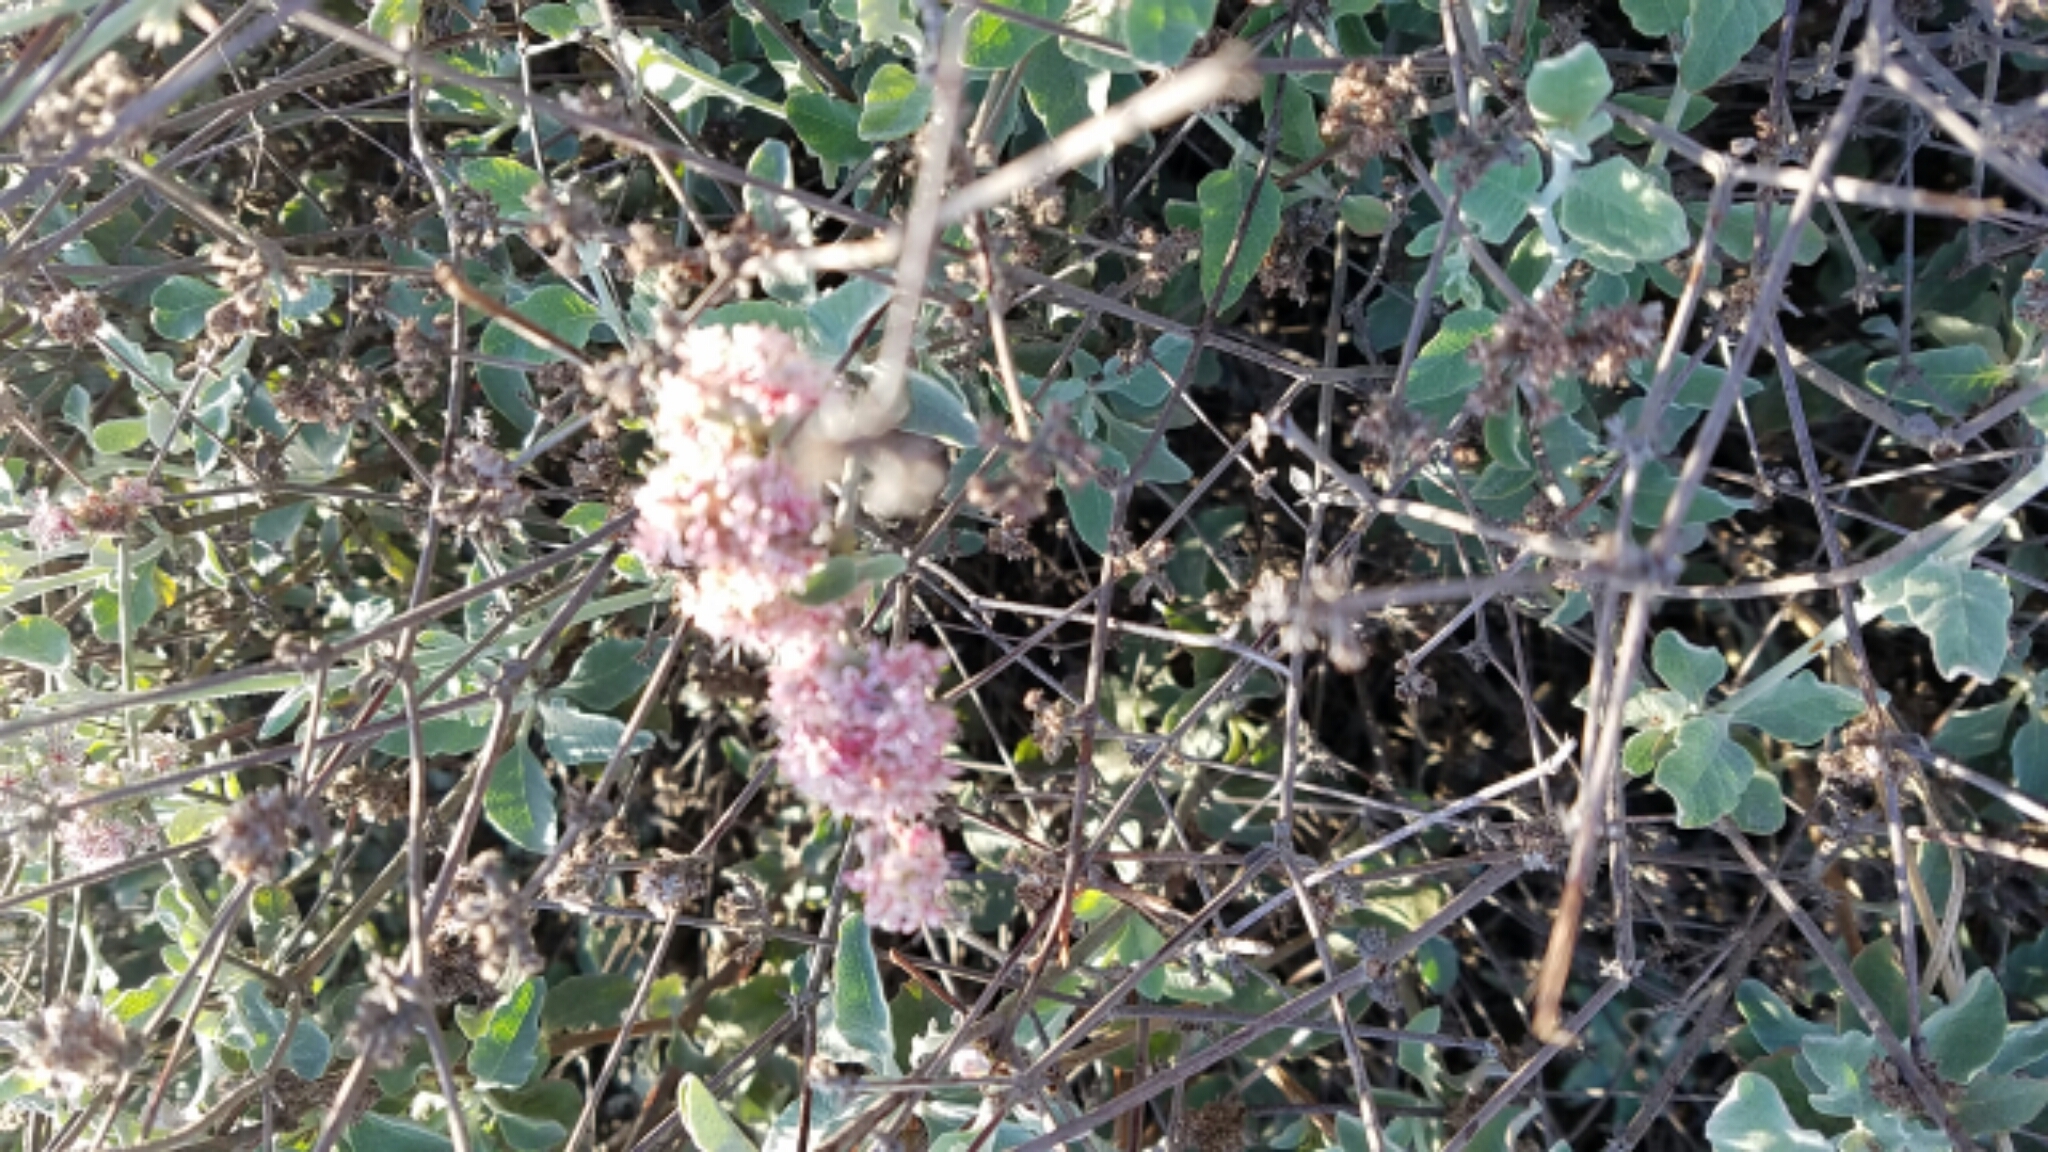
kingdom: Plantae
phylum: Tracheophyta
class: Magnoliopsida
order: Caryophyllales
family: Polygonaceae
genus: Eriogonum
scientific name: Eriogonum cinereum
